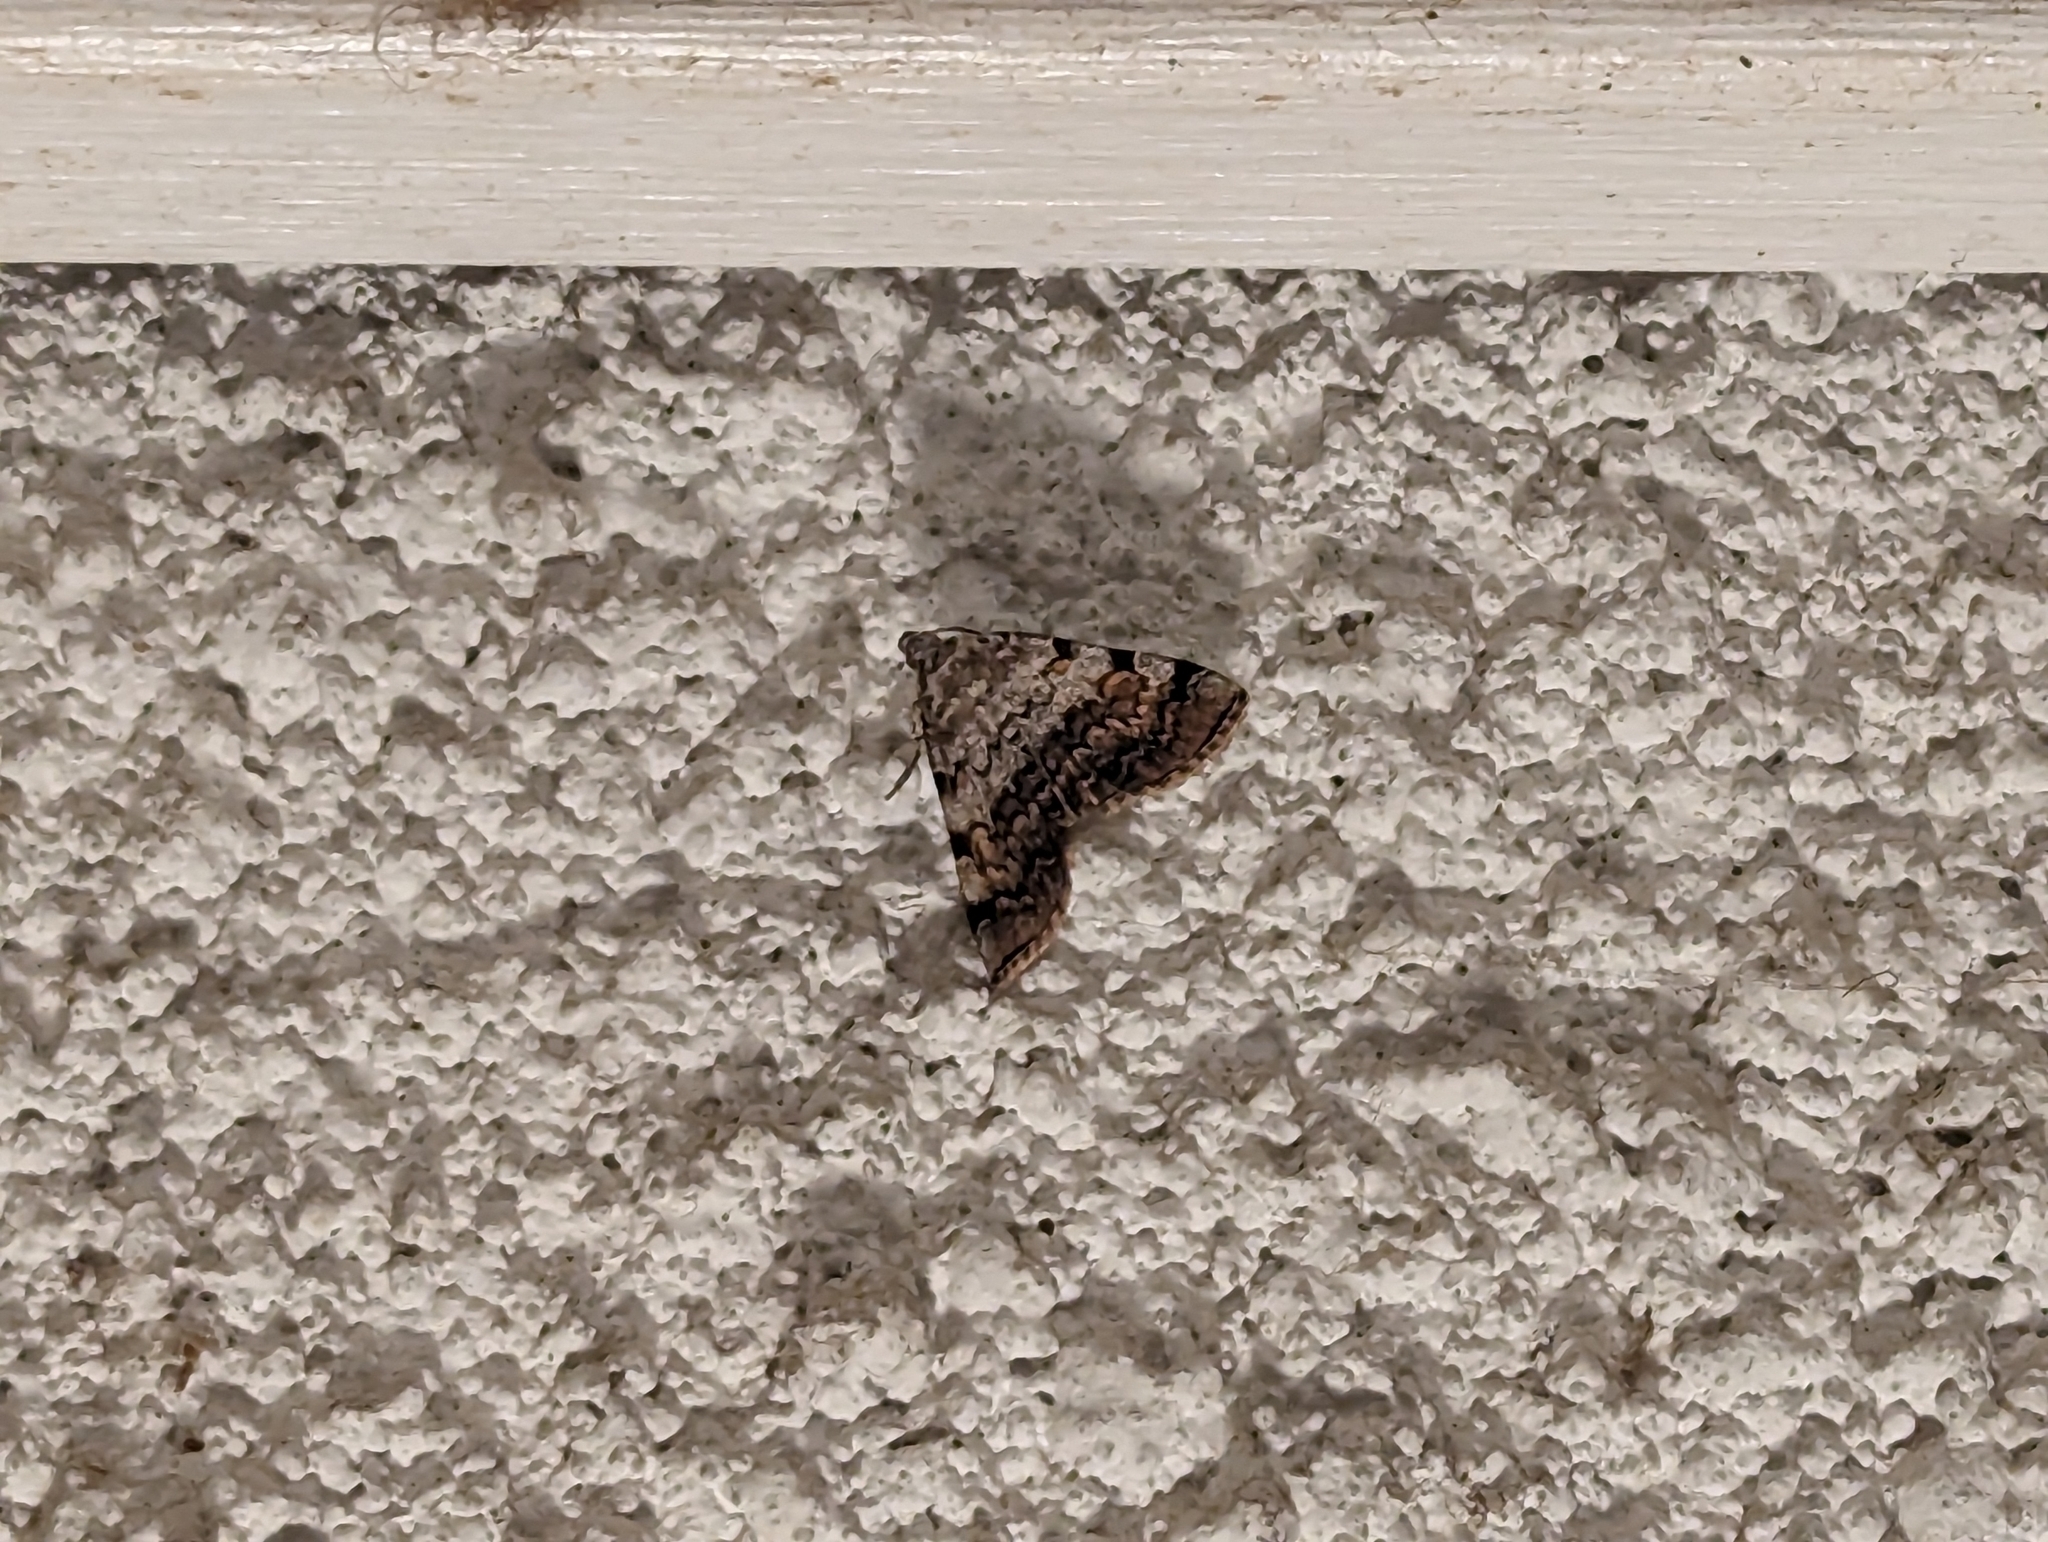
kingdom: Animalia
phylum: Arthropoda
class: Insecta
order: Lepidoptera
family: Erebidae
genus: Idia
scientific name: Idia americalis
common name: American idia moth
